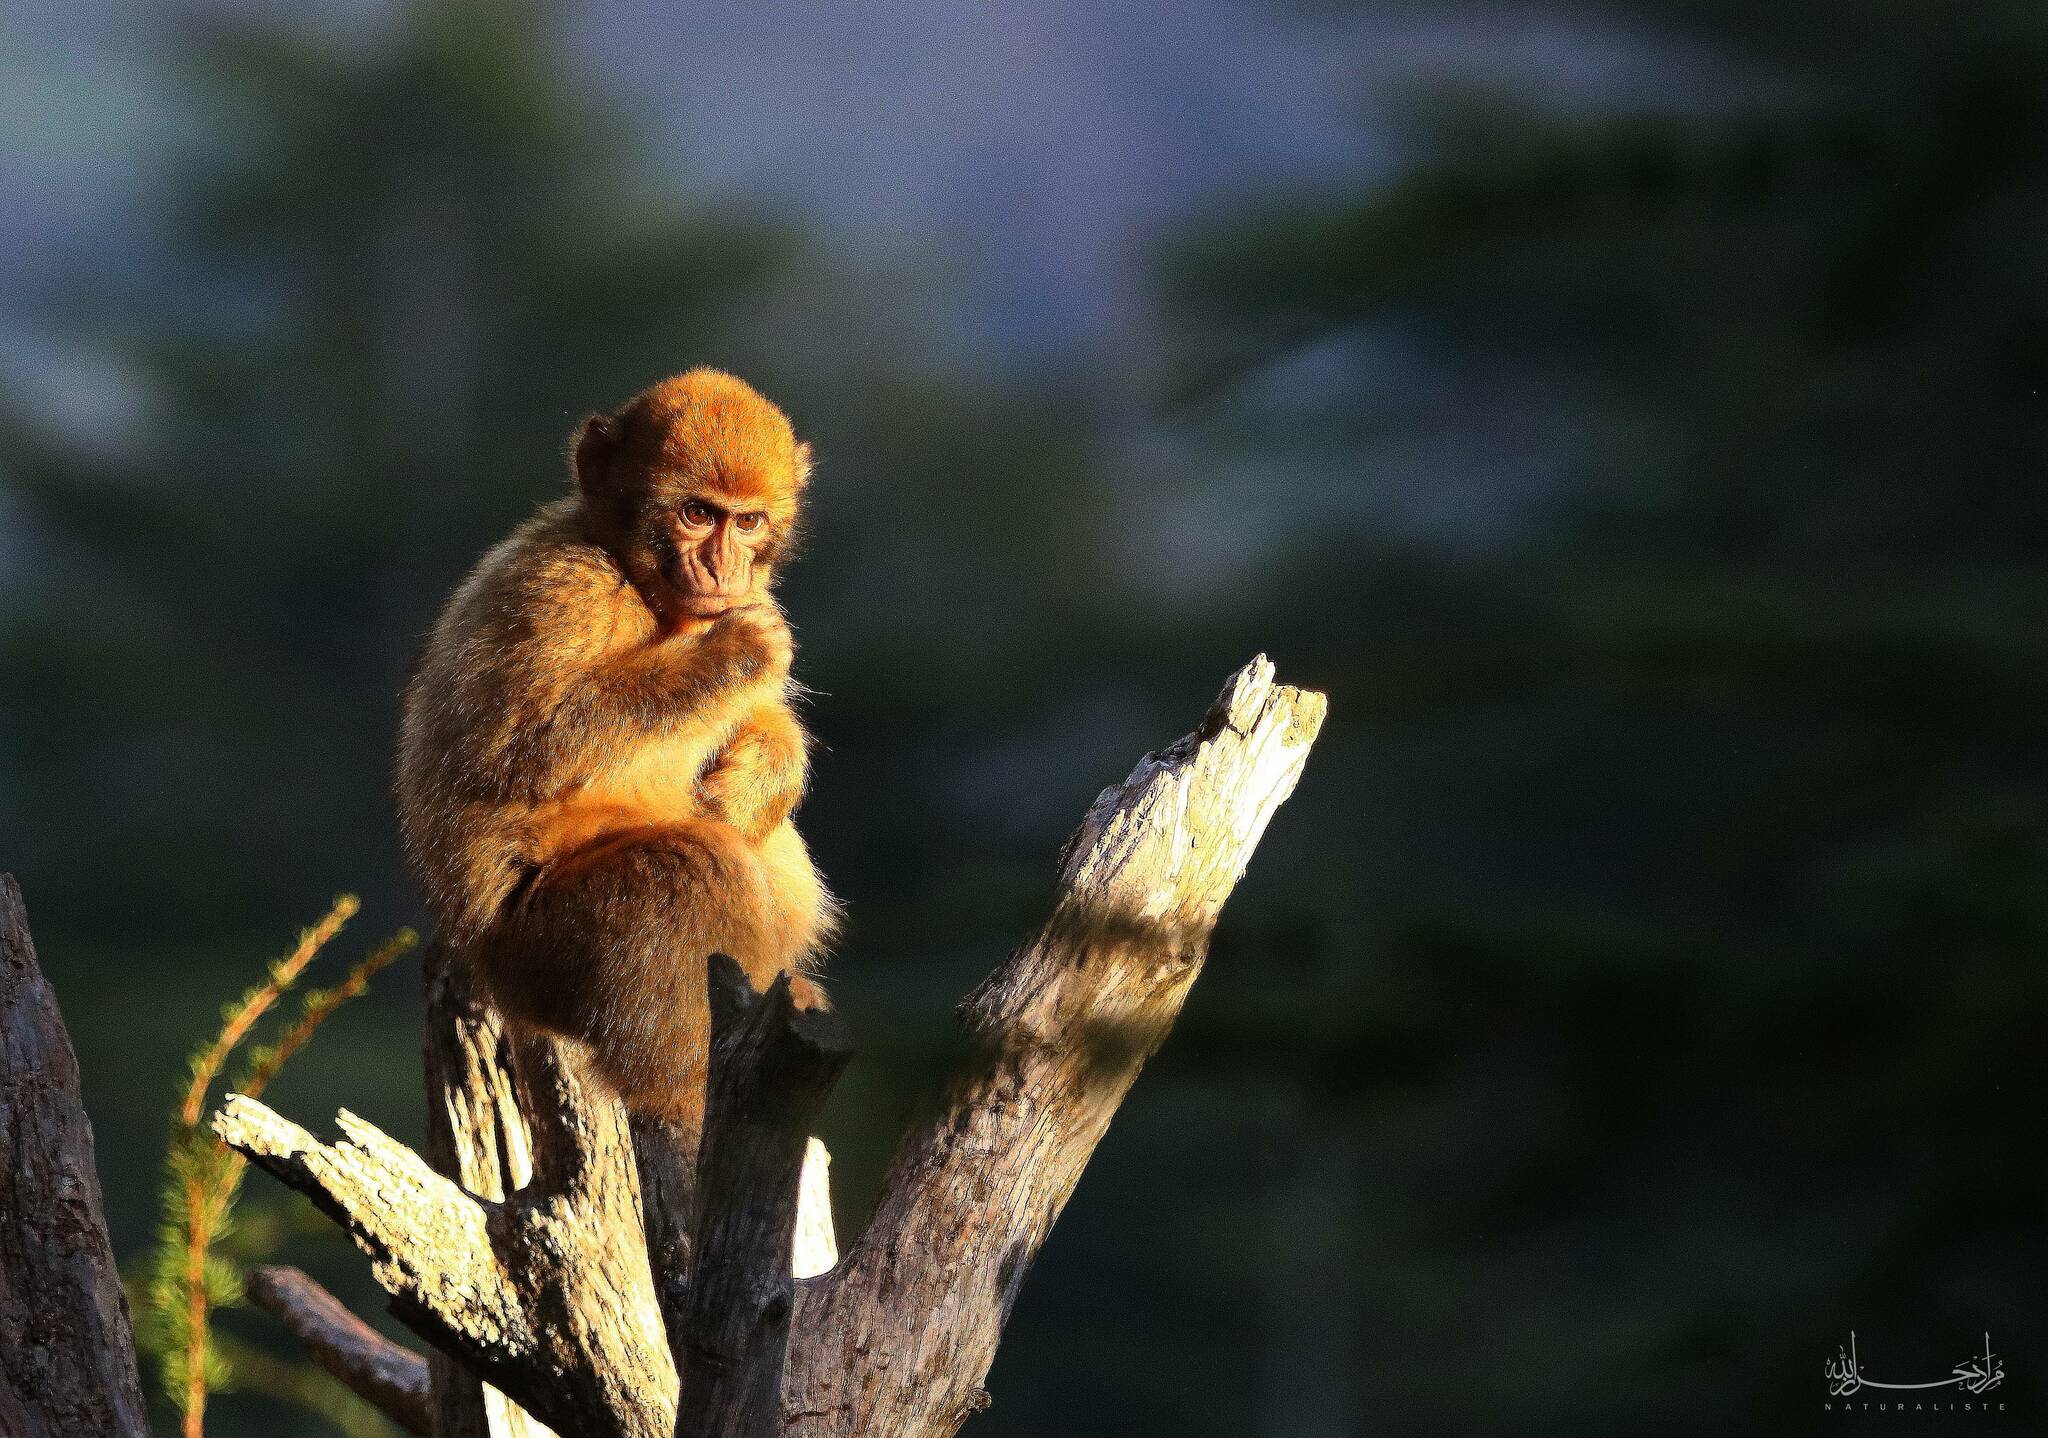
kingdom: Animalia
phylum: Chordata
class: Mammalia
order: Primates
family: Cercopithecidae
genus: Macaca
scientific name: Macaca sylvanus
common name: Barbary macaque
